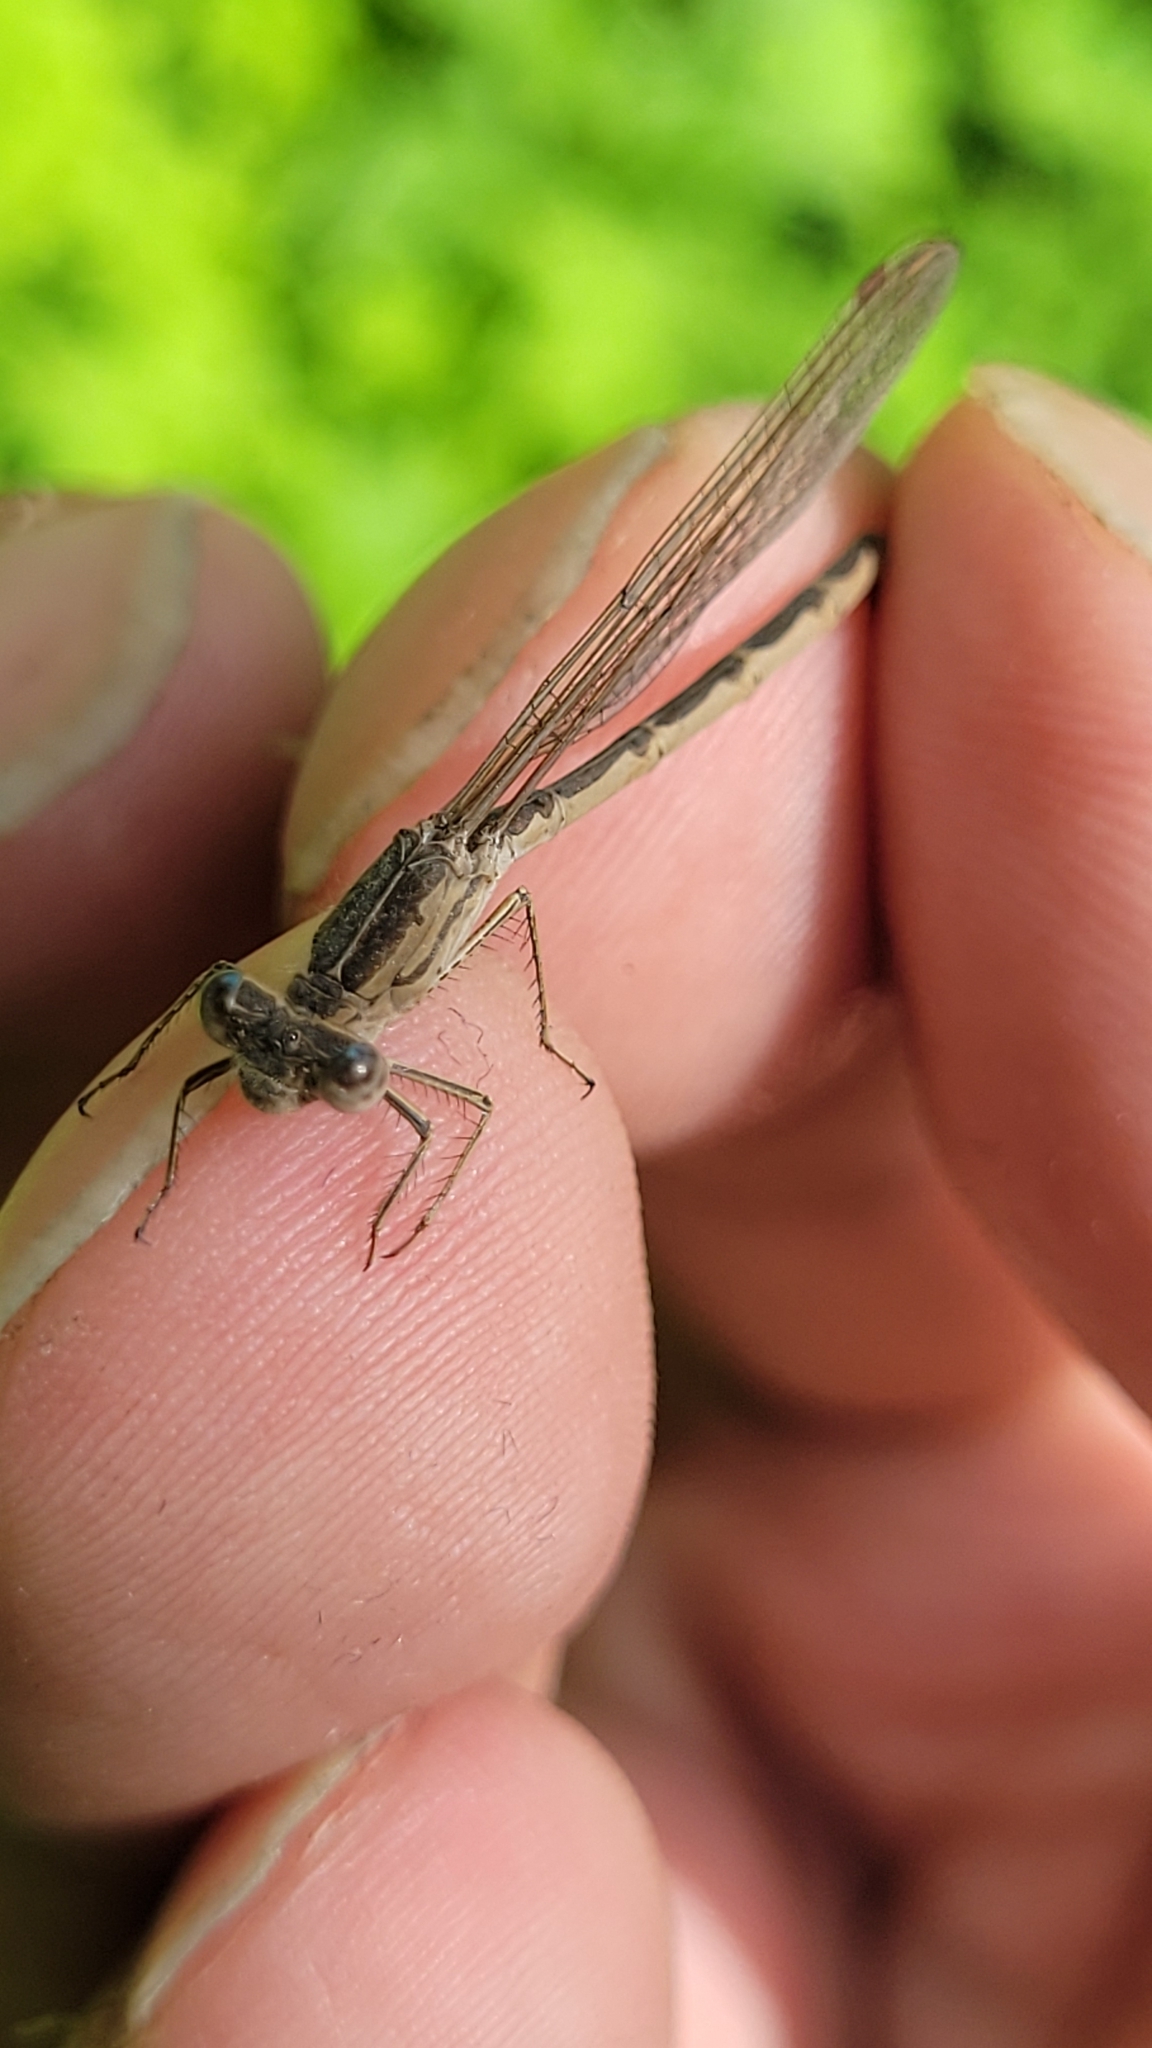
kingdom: Animalia
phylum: Arthropoda
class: Insecta
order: Odonata
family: Lestidae
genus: Sympecma
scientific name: Sympecma paedisca
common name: Siberian winter damsel
